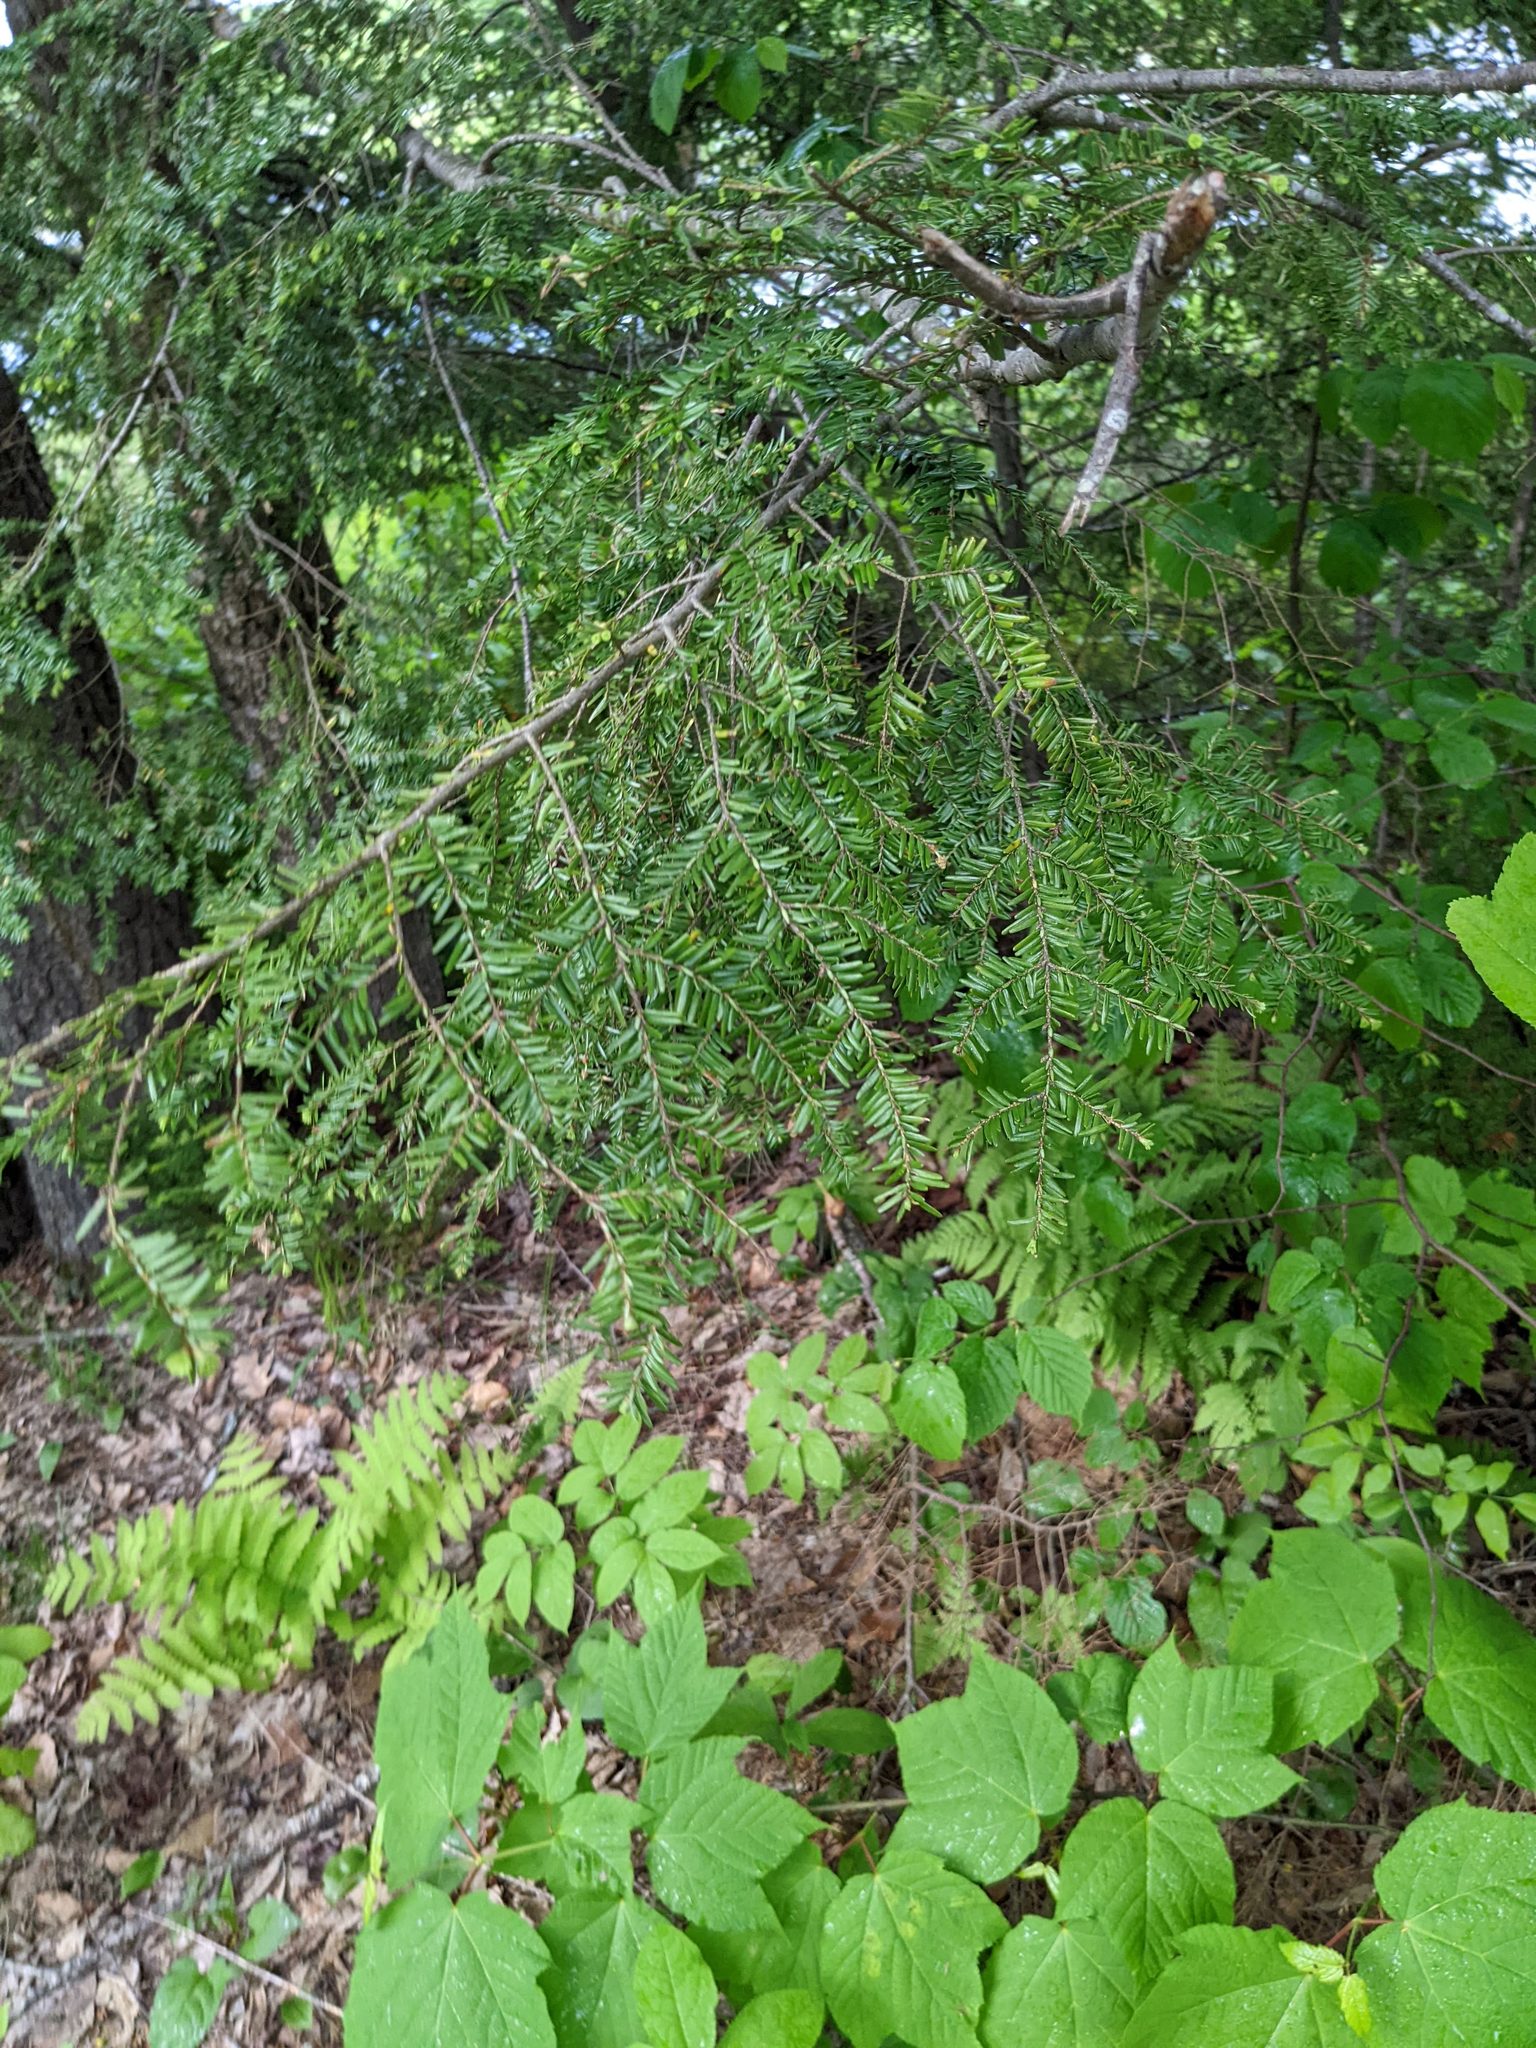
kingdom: Plantae
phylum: Tracheophyta
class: Pinopsida
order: Pinales
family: Pinaceae
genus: Tsuga
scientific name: Tsuga canadensis
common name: Eastern hemlock
